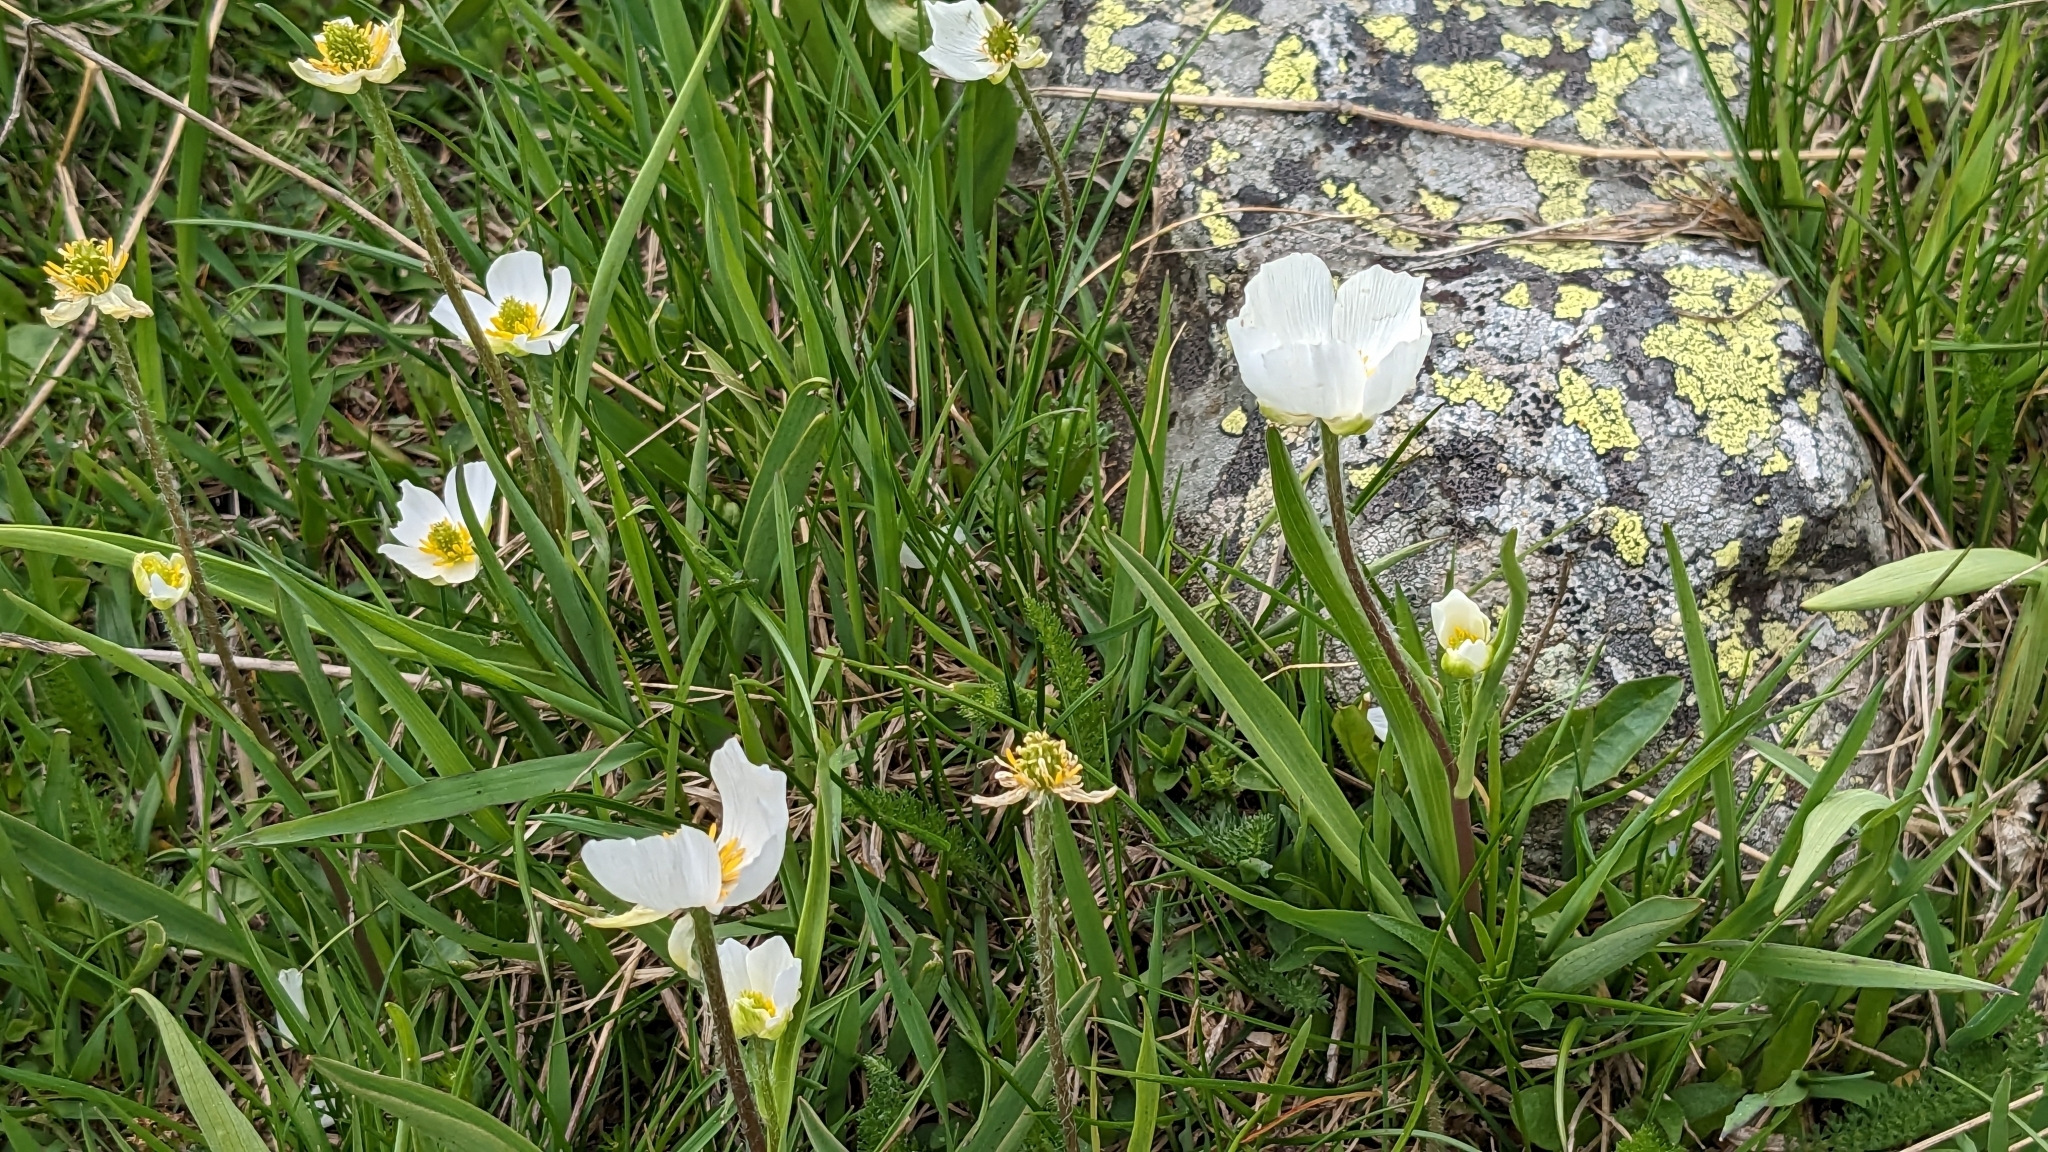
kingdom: Plantae
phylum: Tracheophyta
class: Magnoliopsida
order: Ranunculales
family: Ranunculaceae
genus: Ranunculus
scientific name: Ranunculus kuepferi
